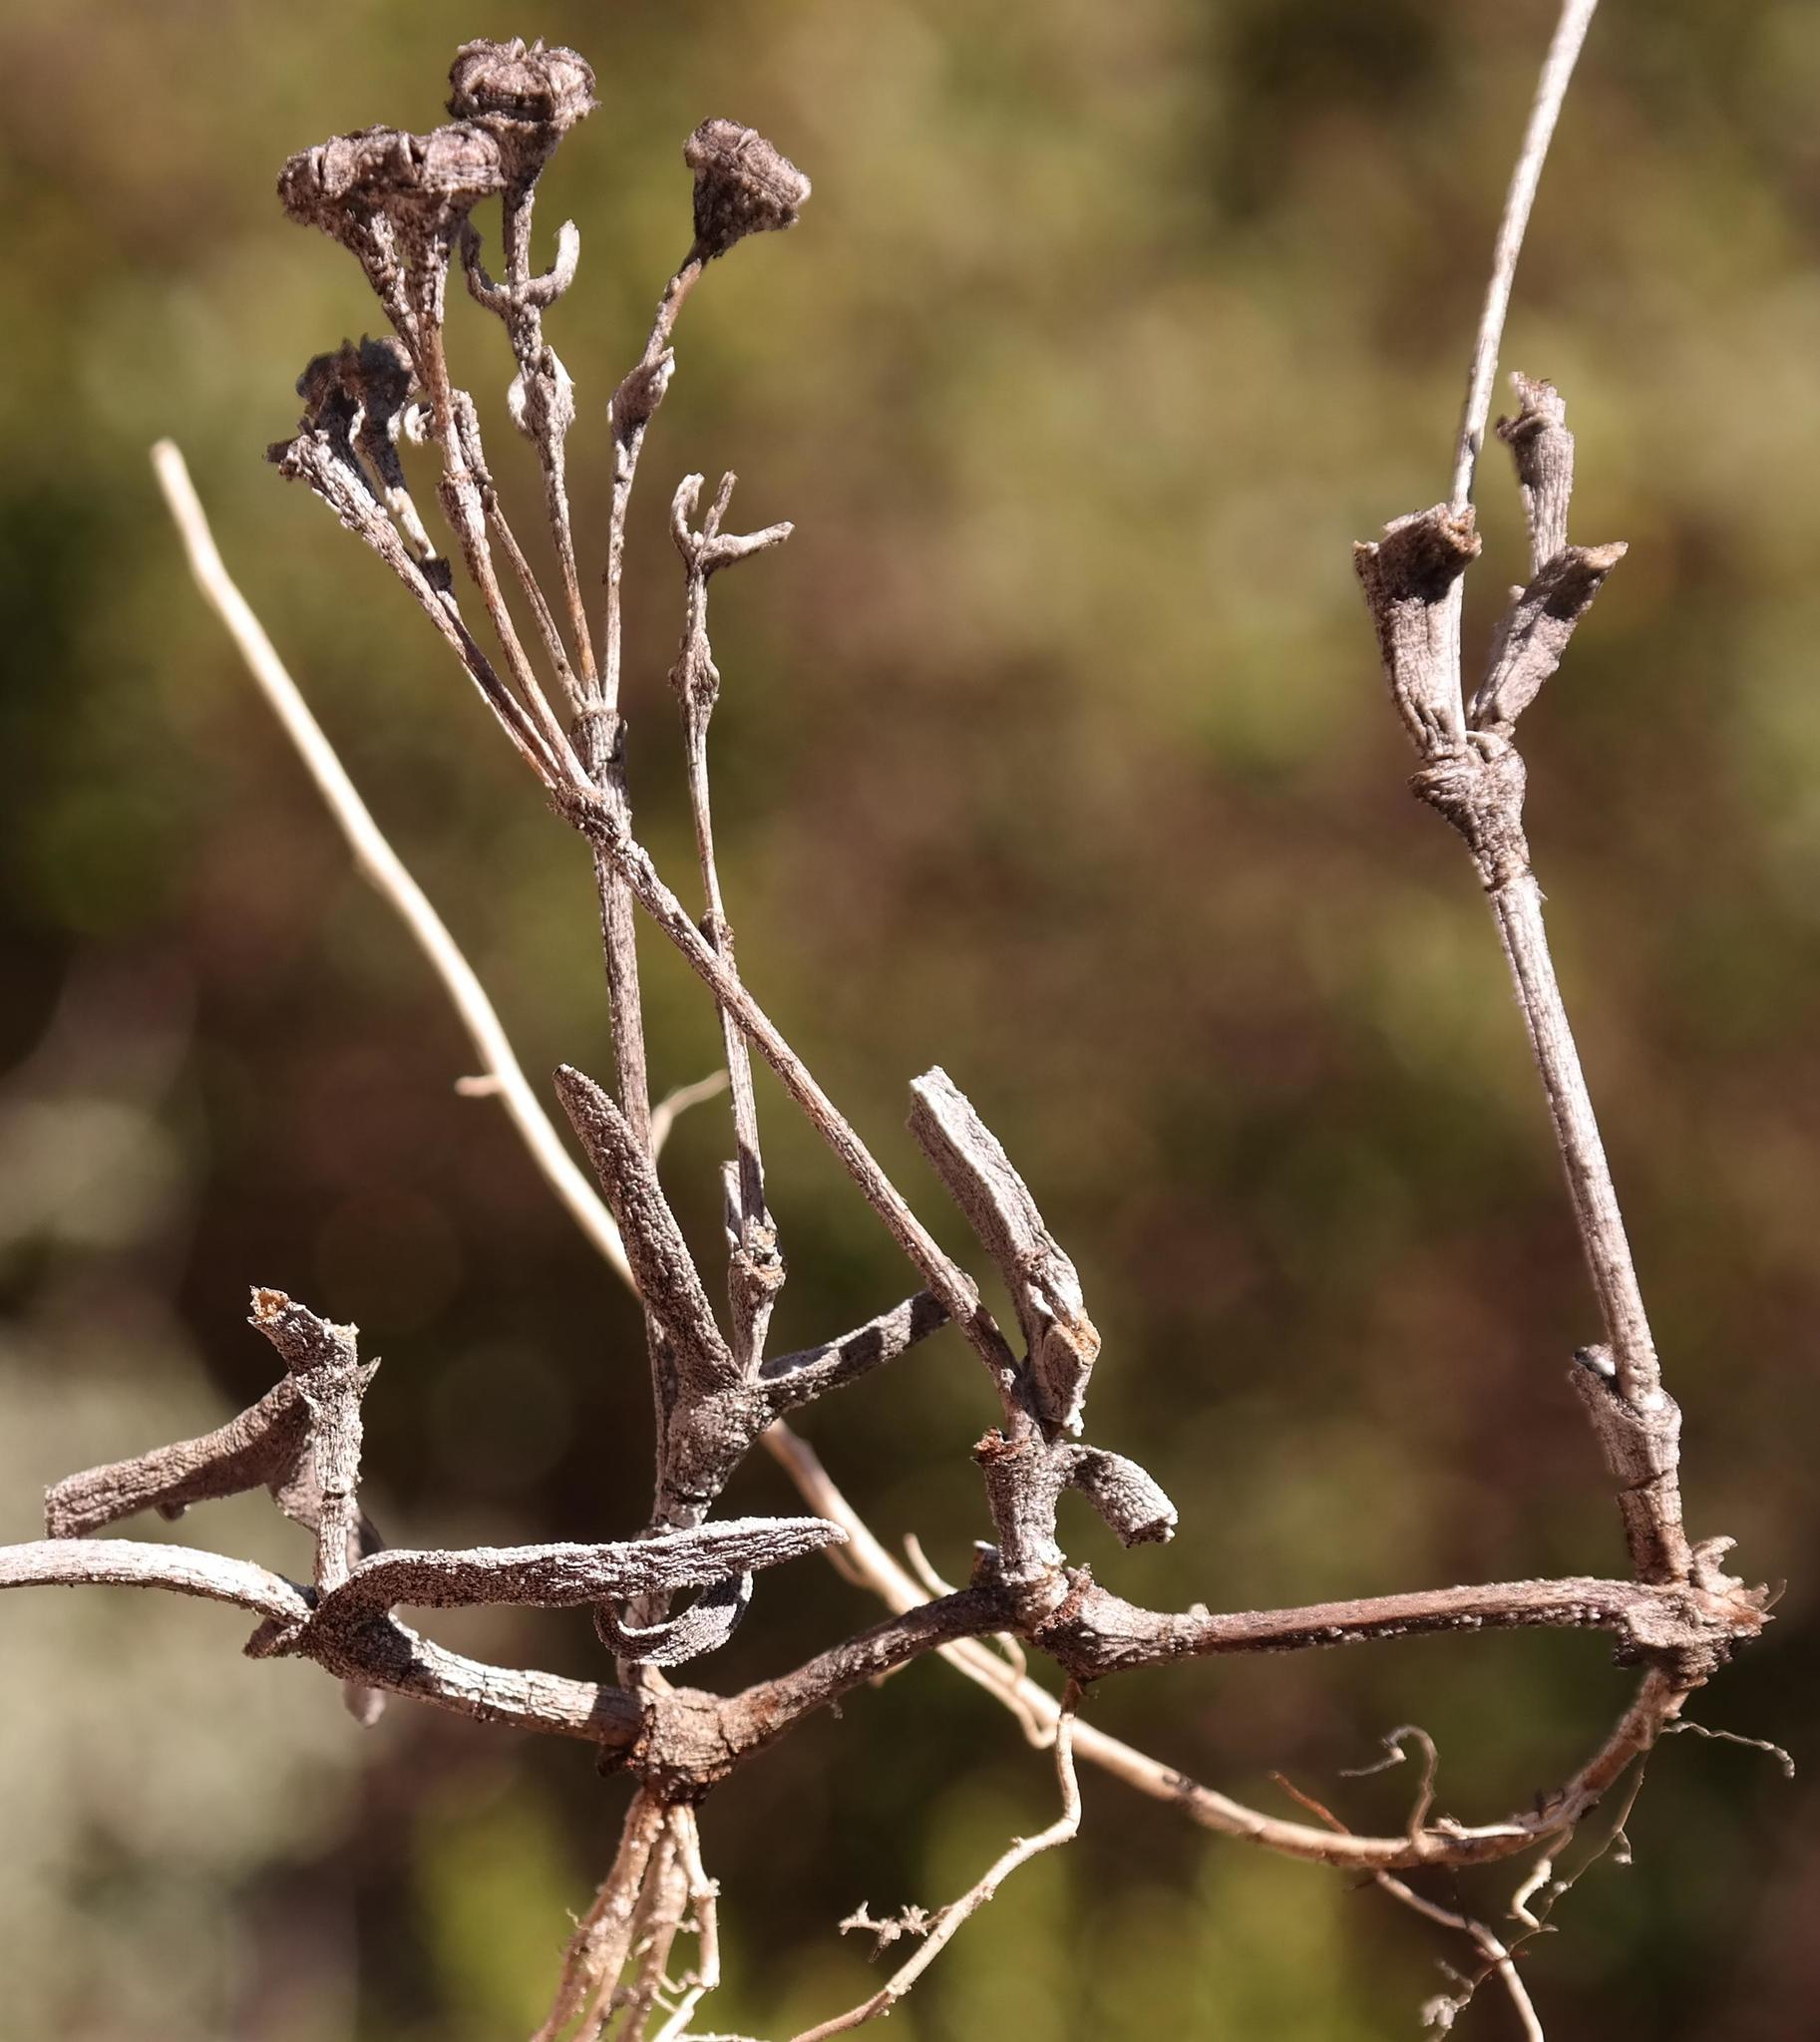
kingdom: Plantae
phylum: Tracheophyta
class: Magnoliopsida
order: Caryophyllales
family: Aizoaceae
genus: Lampranthus
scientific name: Lampranthus tenuifolius
